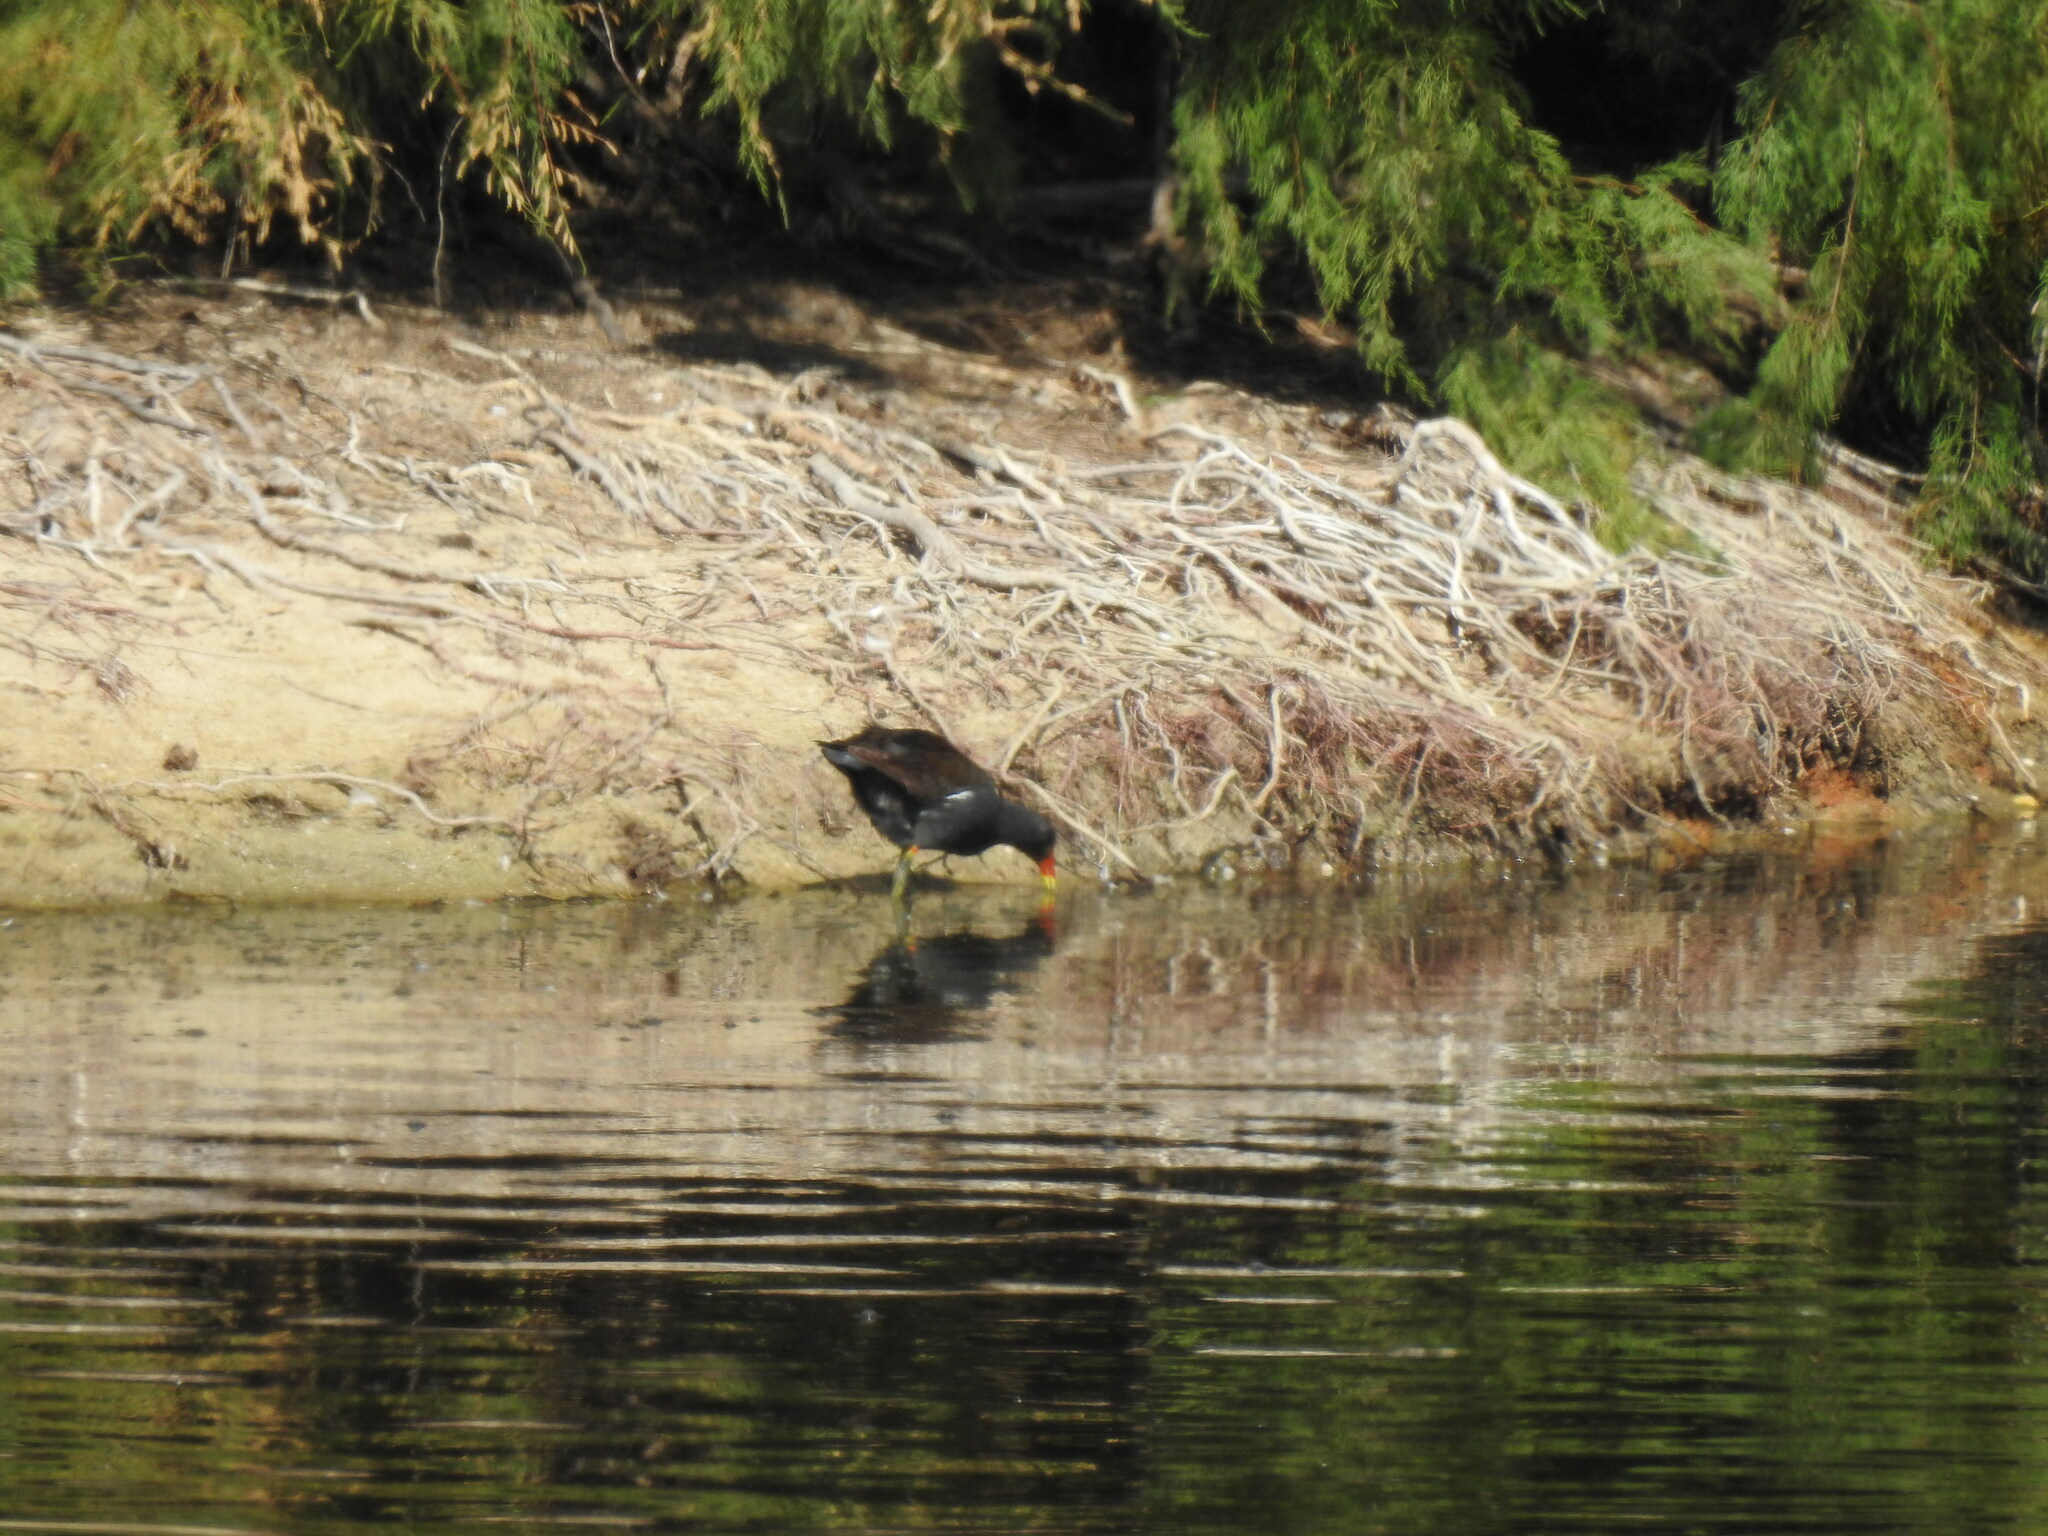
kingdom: Animalia
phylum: Chordata
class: Aves
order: Gruiformes
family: Rallidae
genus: Gallinula
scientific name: Gallinula chloropus
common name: Common moorhen
